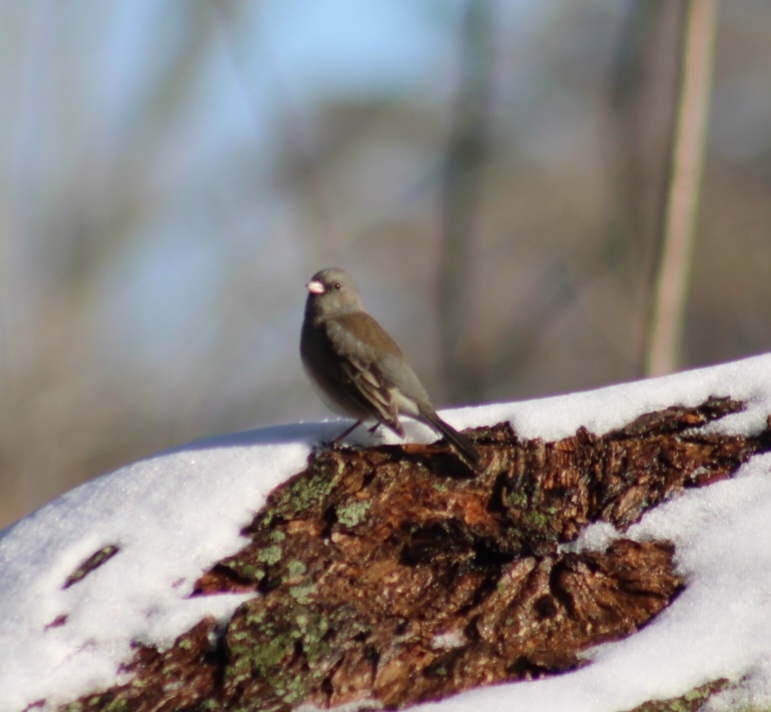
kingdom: Animalia
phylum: Chordata
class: Aves
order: Passeriformes
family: Passerellidae
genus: Junco
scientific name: Junco hyemalis
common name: Dark-eyed junco
